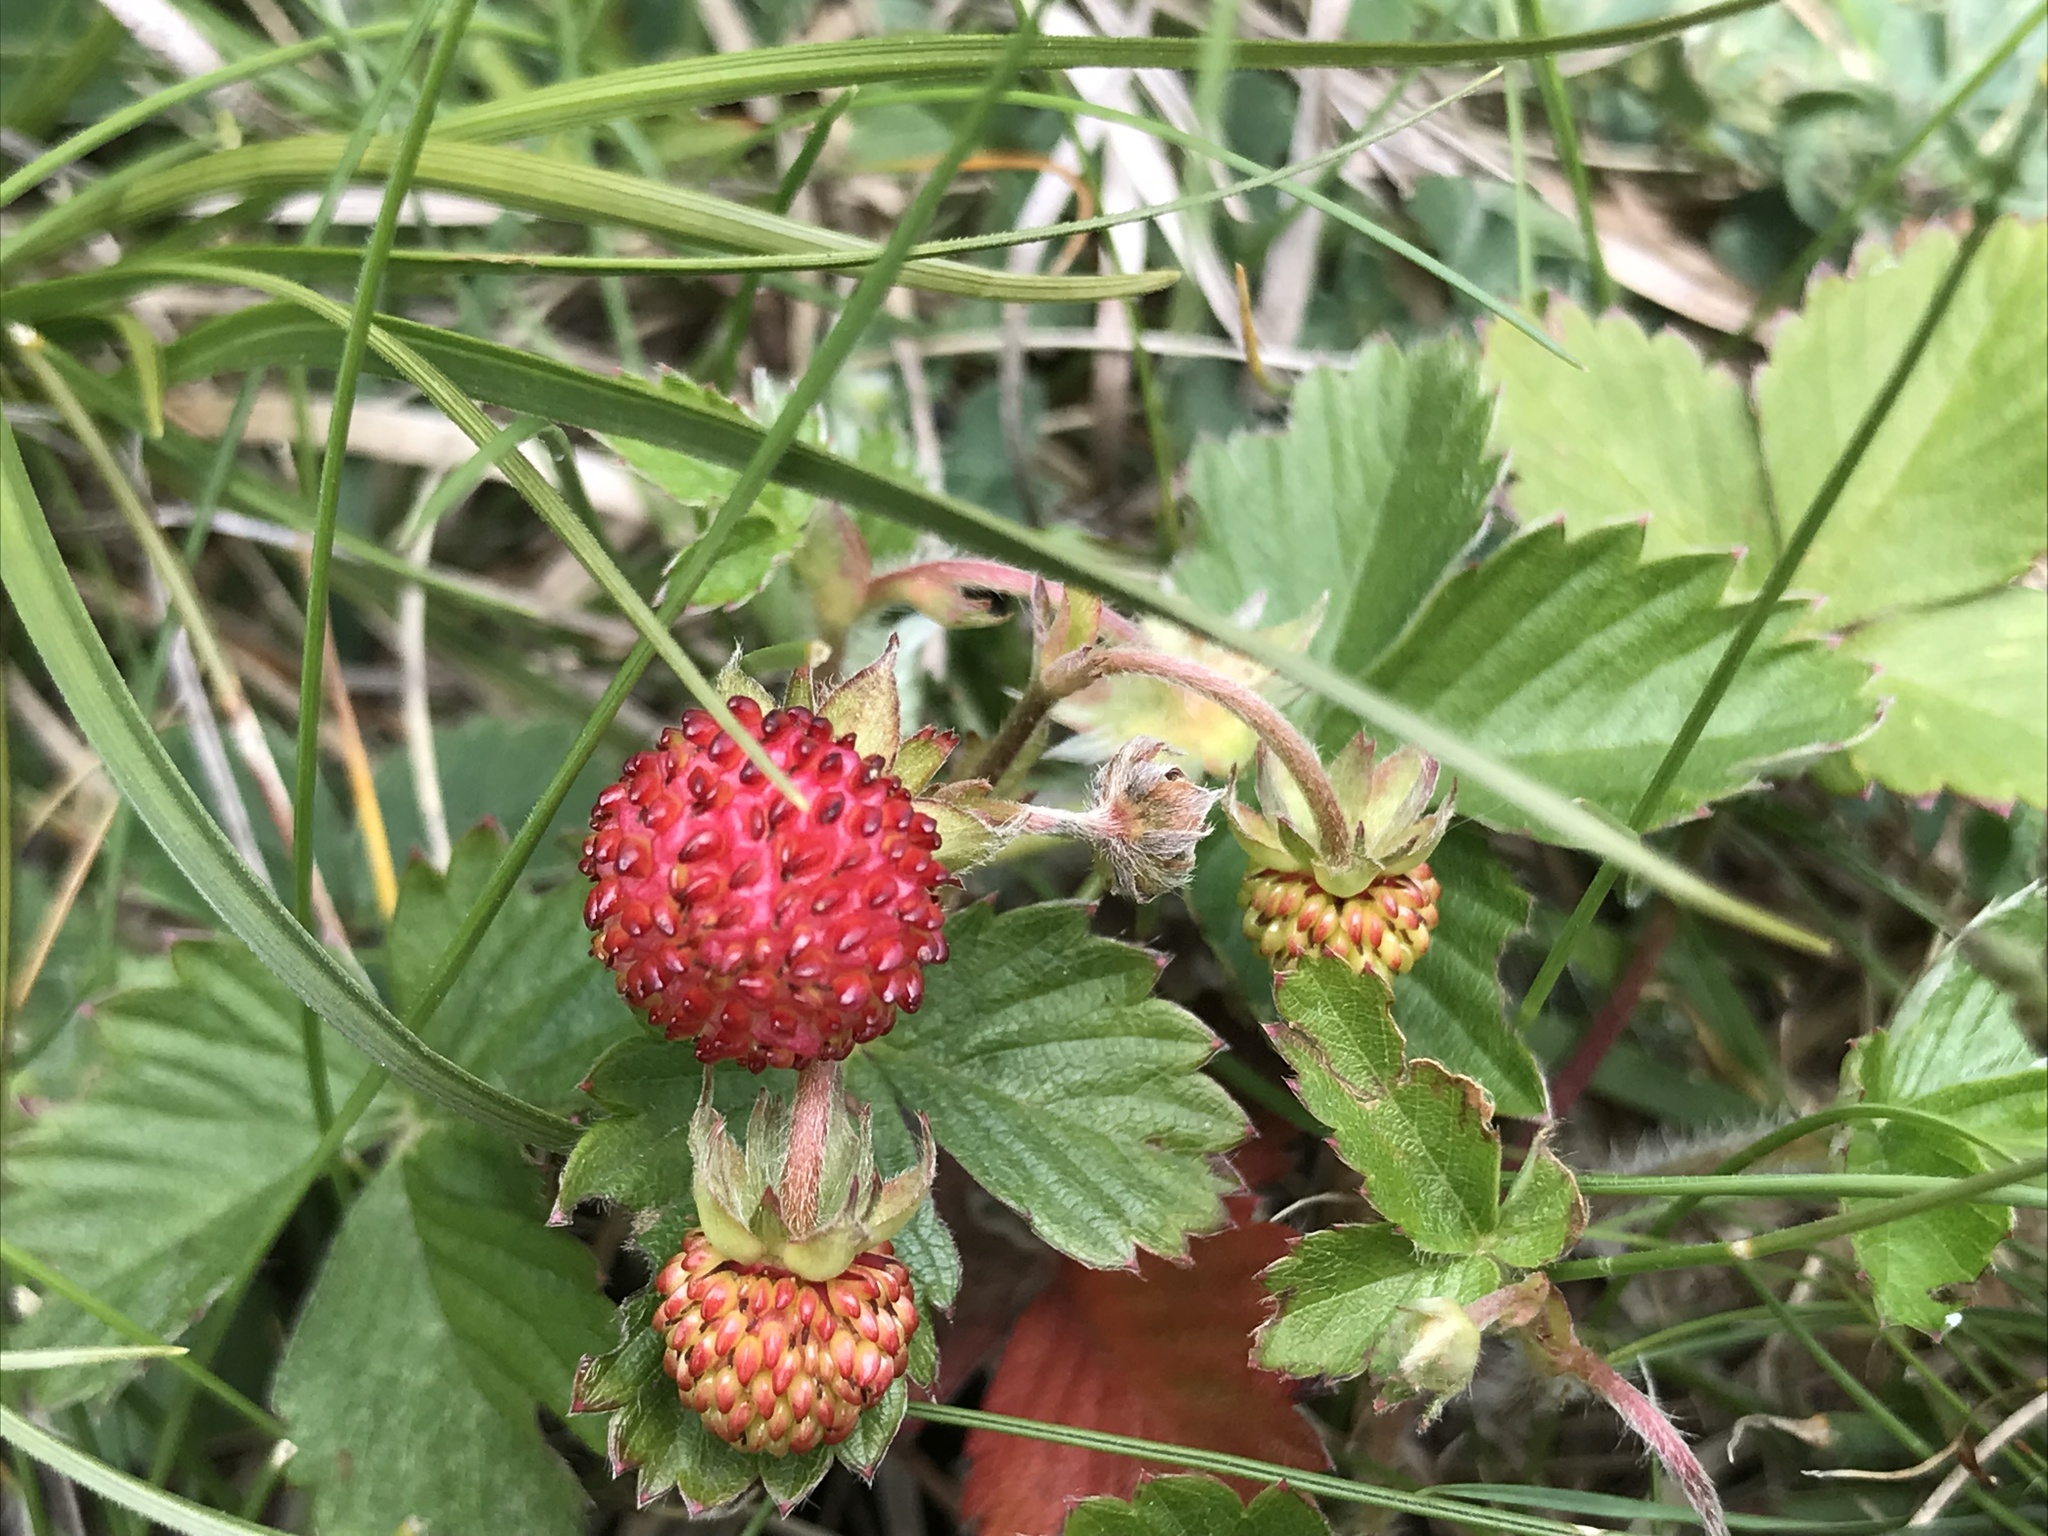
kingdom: Plantae
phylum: Tracheophyta
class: Magnoliopsida
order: Rosales
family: Rosaceae
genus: Fragaria
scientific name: Fragaria vesca
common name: Wild strawberry
